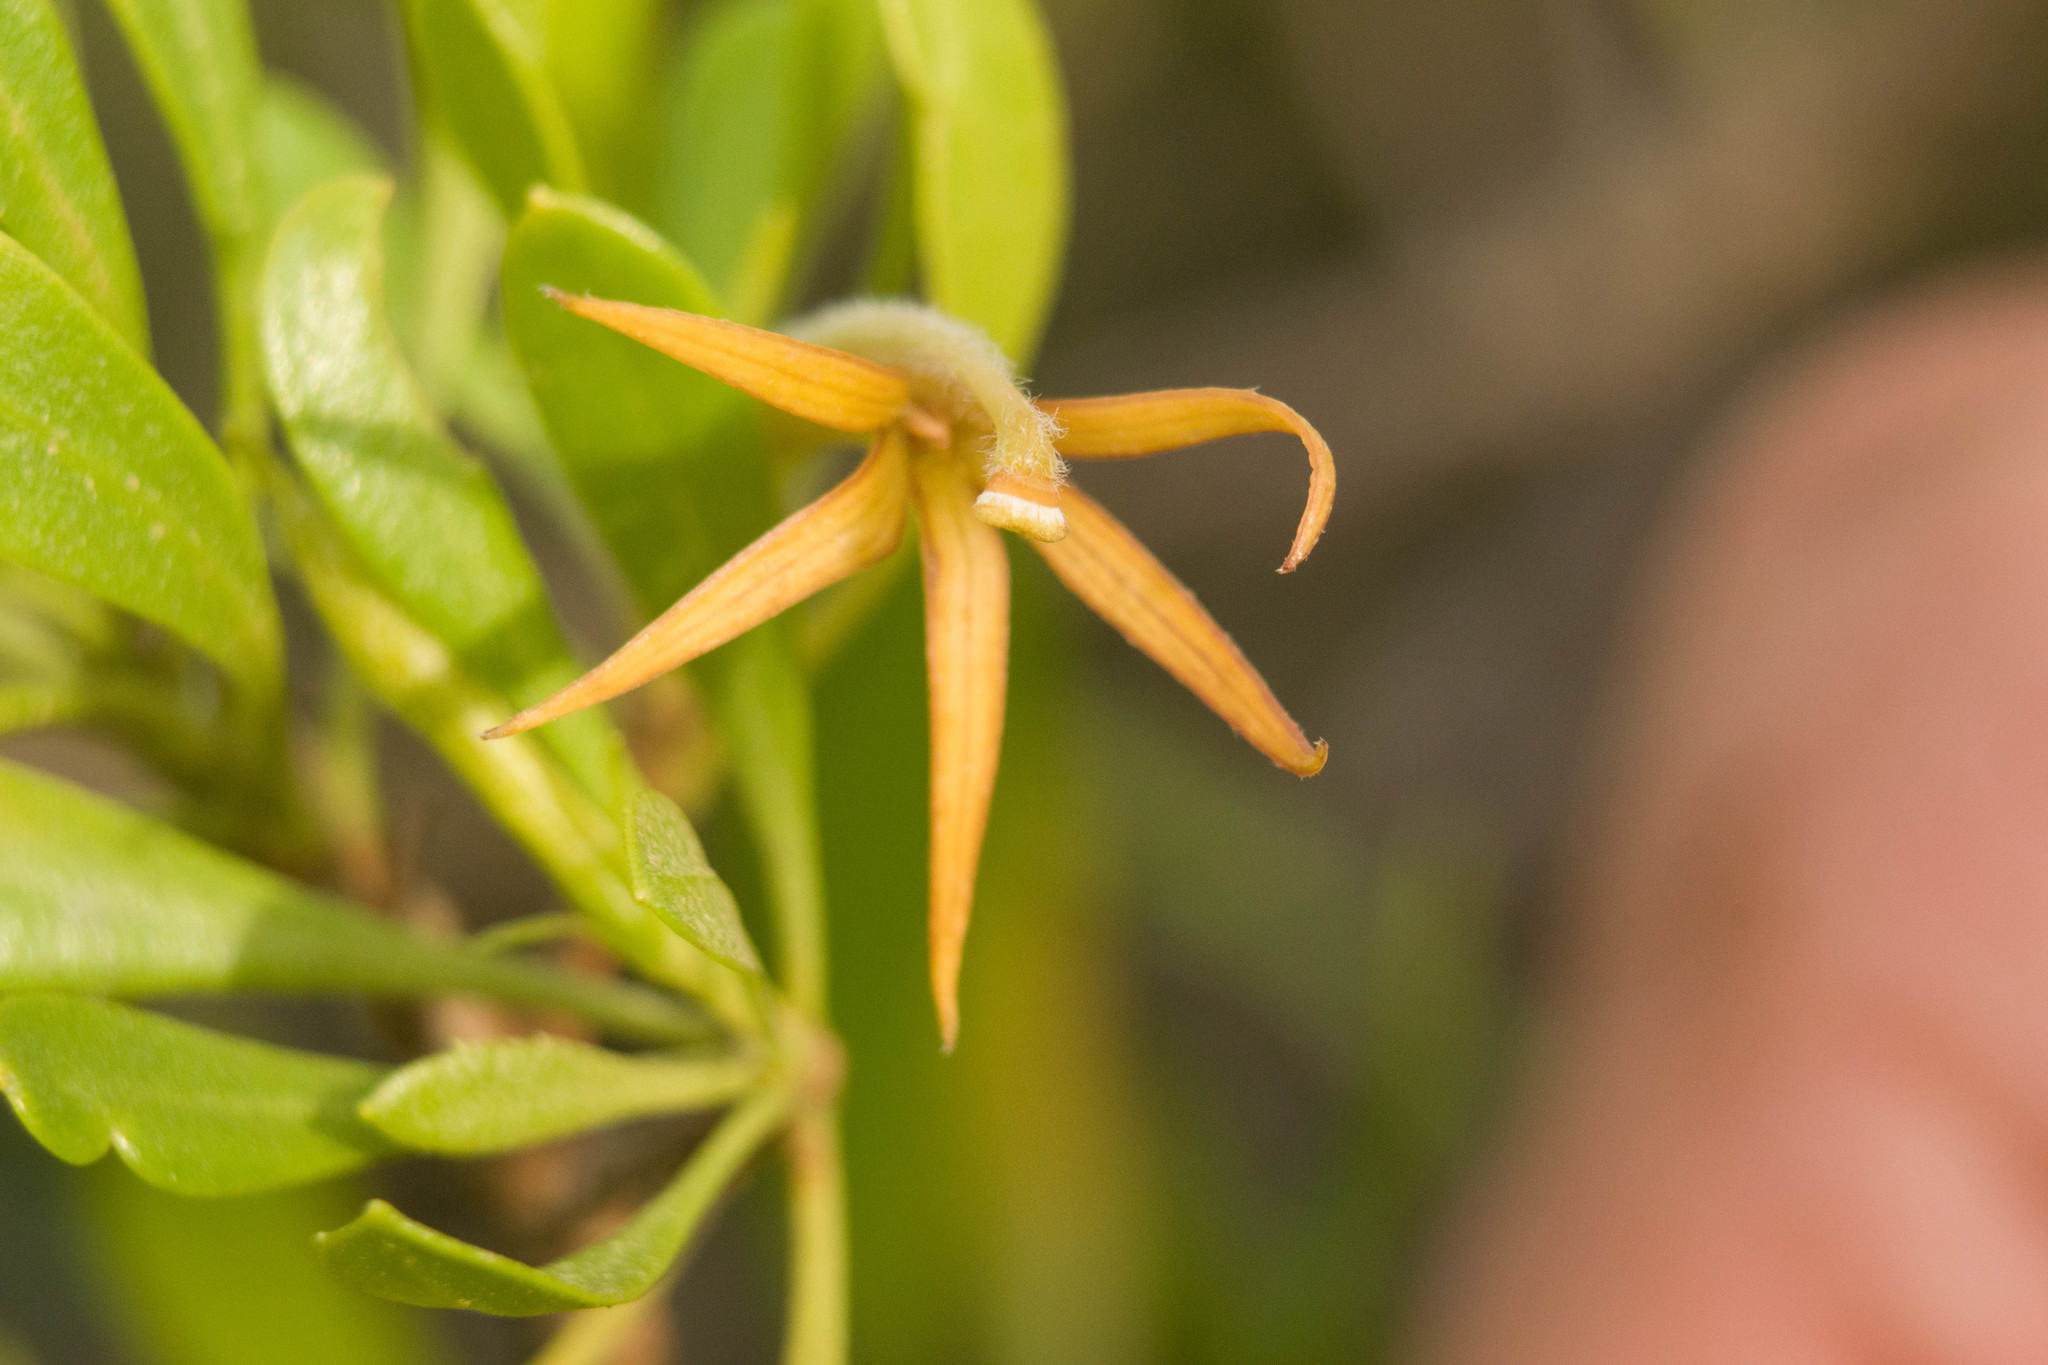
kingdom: Plantae
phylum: Tracheophyta
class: Magnoliopsida
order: Asterales
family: Goodeniaceae
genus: Scaevola
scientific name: Scaevola gaudichaudii
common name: Mountain naupaka
